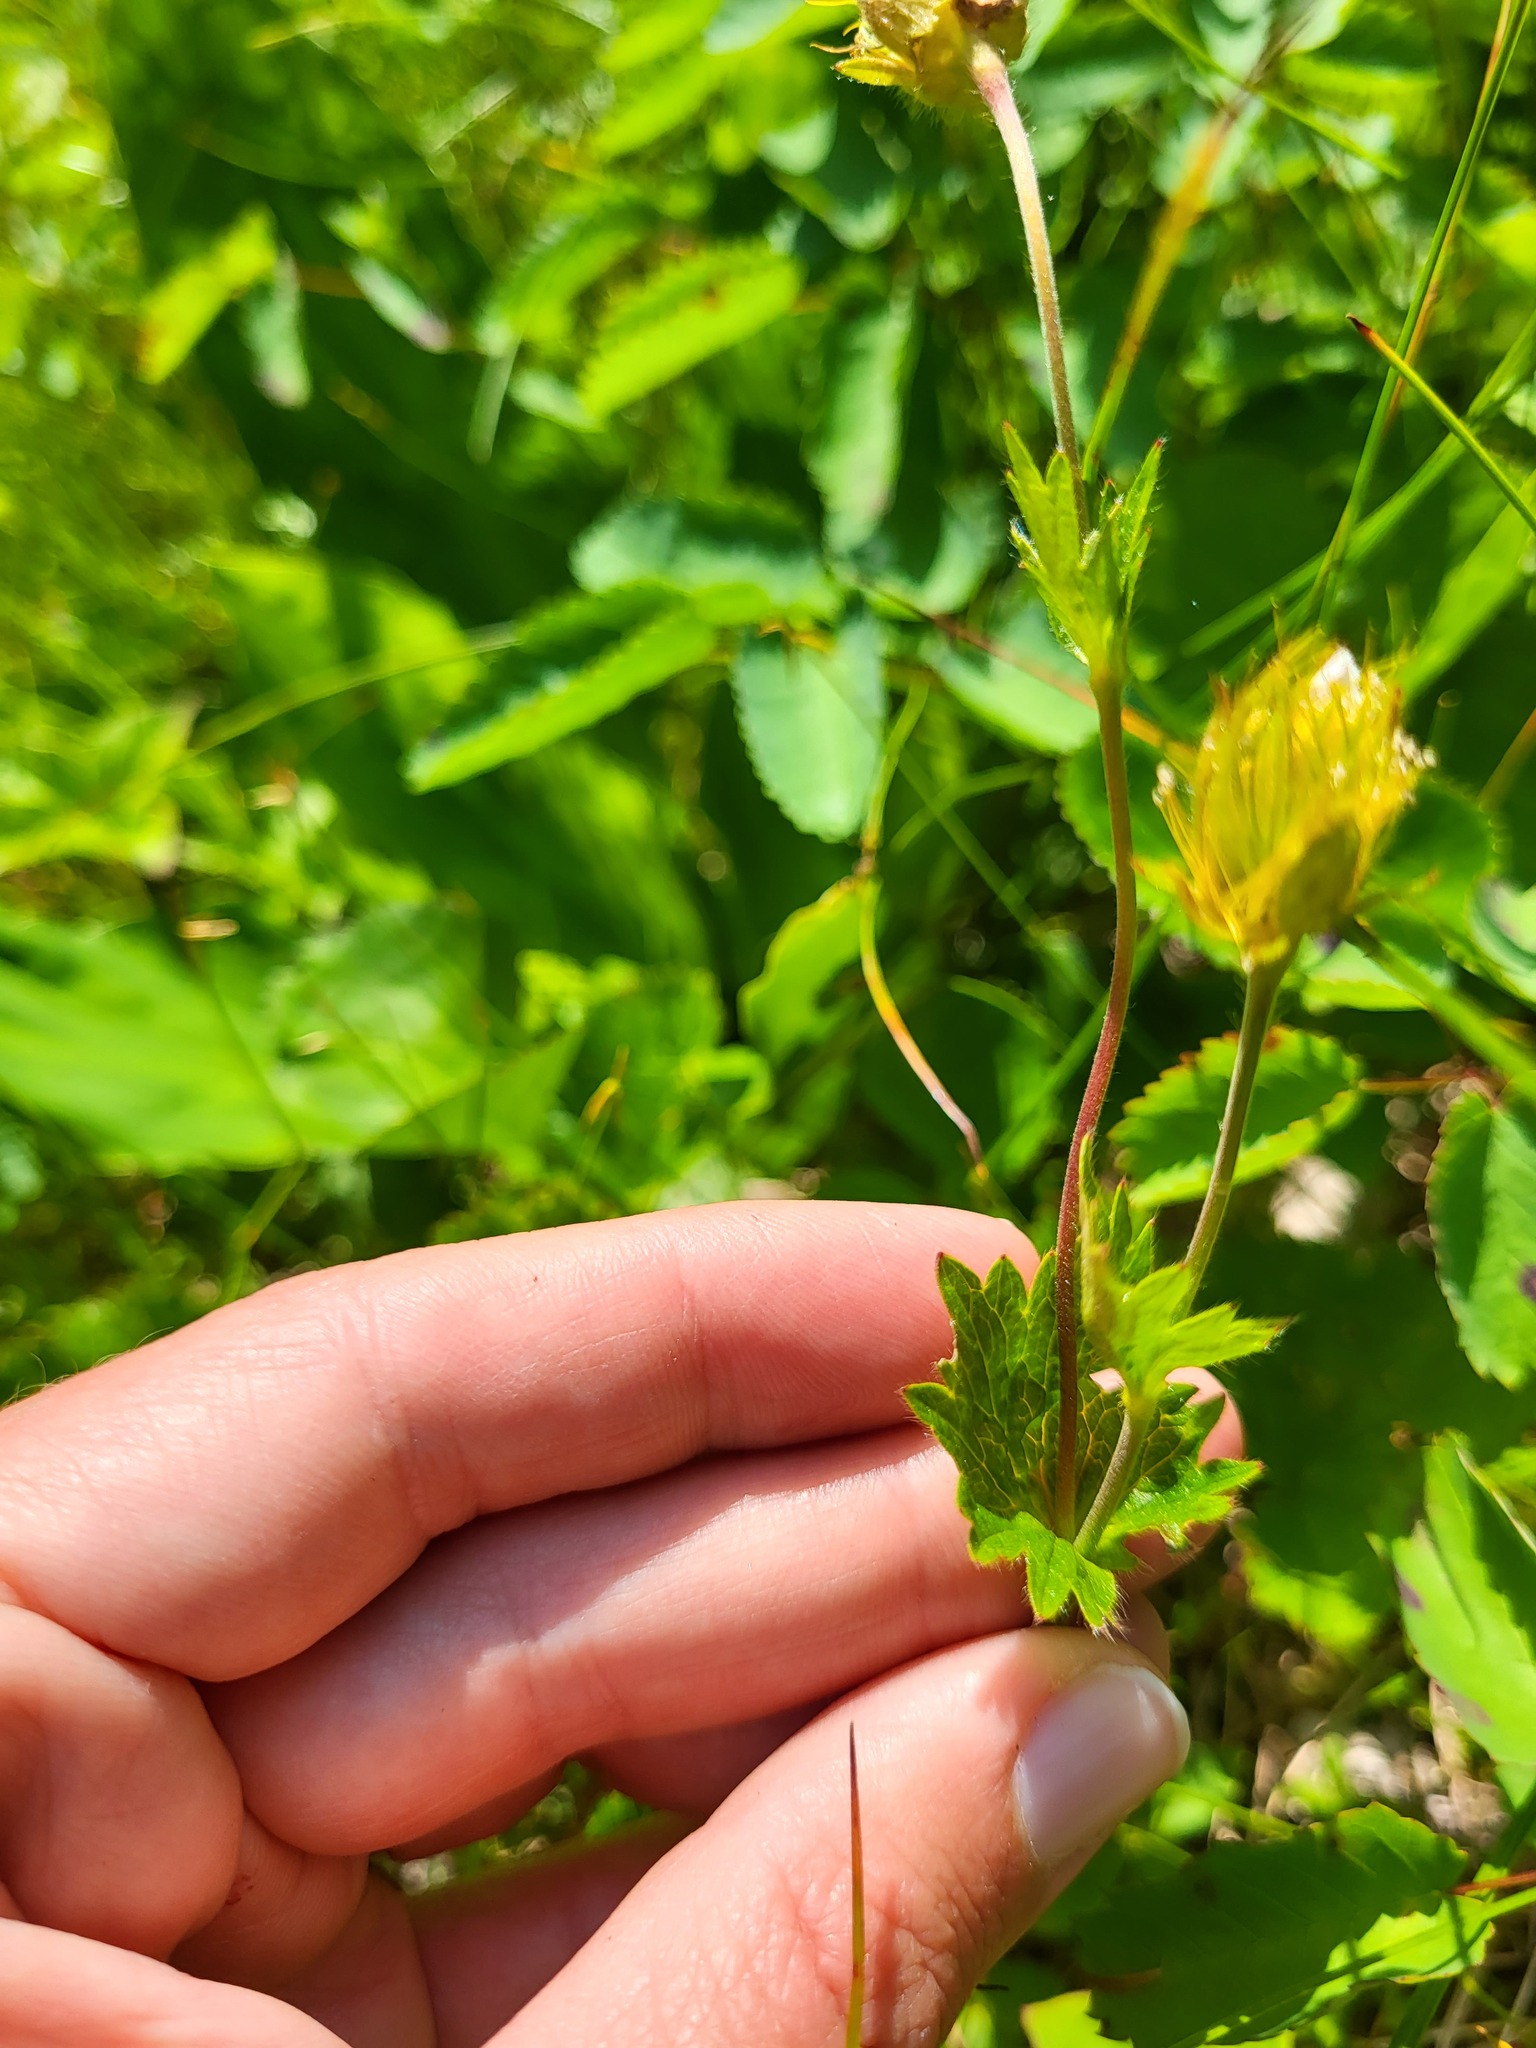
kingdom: Plantae
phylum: Tracheophyta
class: Magnoliopsida
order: Rosales
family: Rosaceae
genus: Geum
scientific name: Geum calthifolium
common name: Caltha-leaved avens
